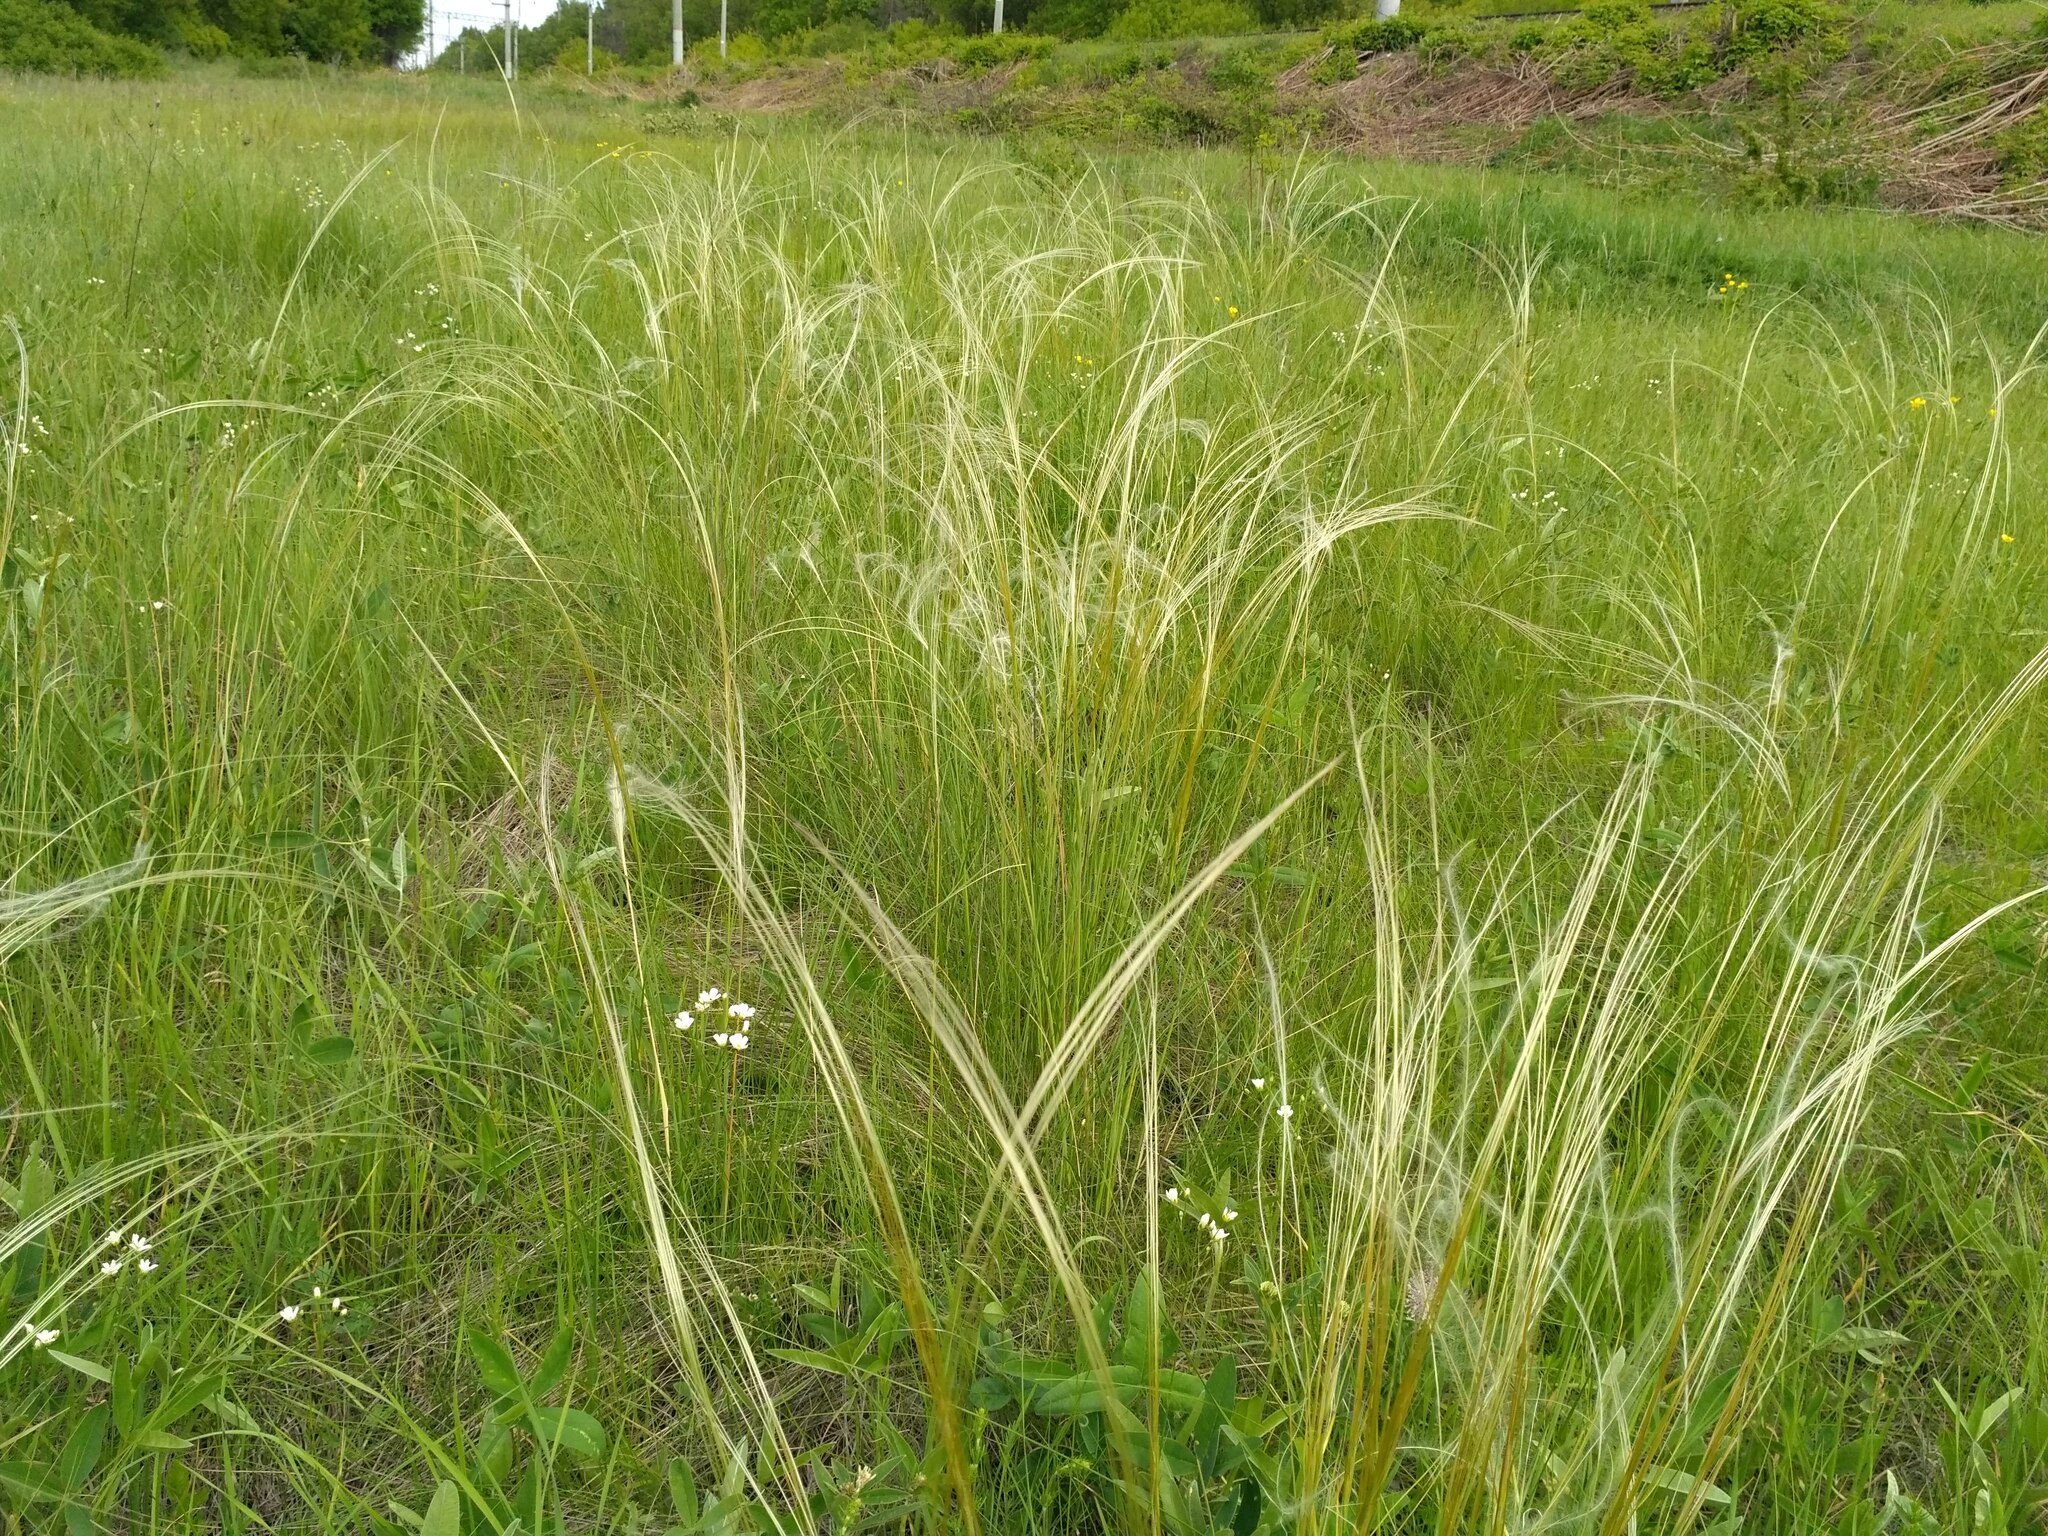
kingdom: Plantae
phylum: Tracheophyta
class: Liliopsida
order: Poales
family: Poaceae
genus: Stipa
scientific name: Stipa pennata
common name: European feather grass
